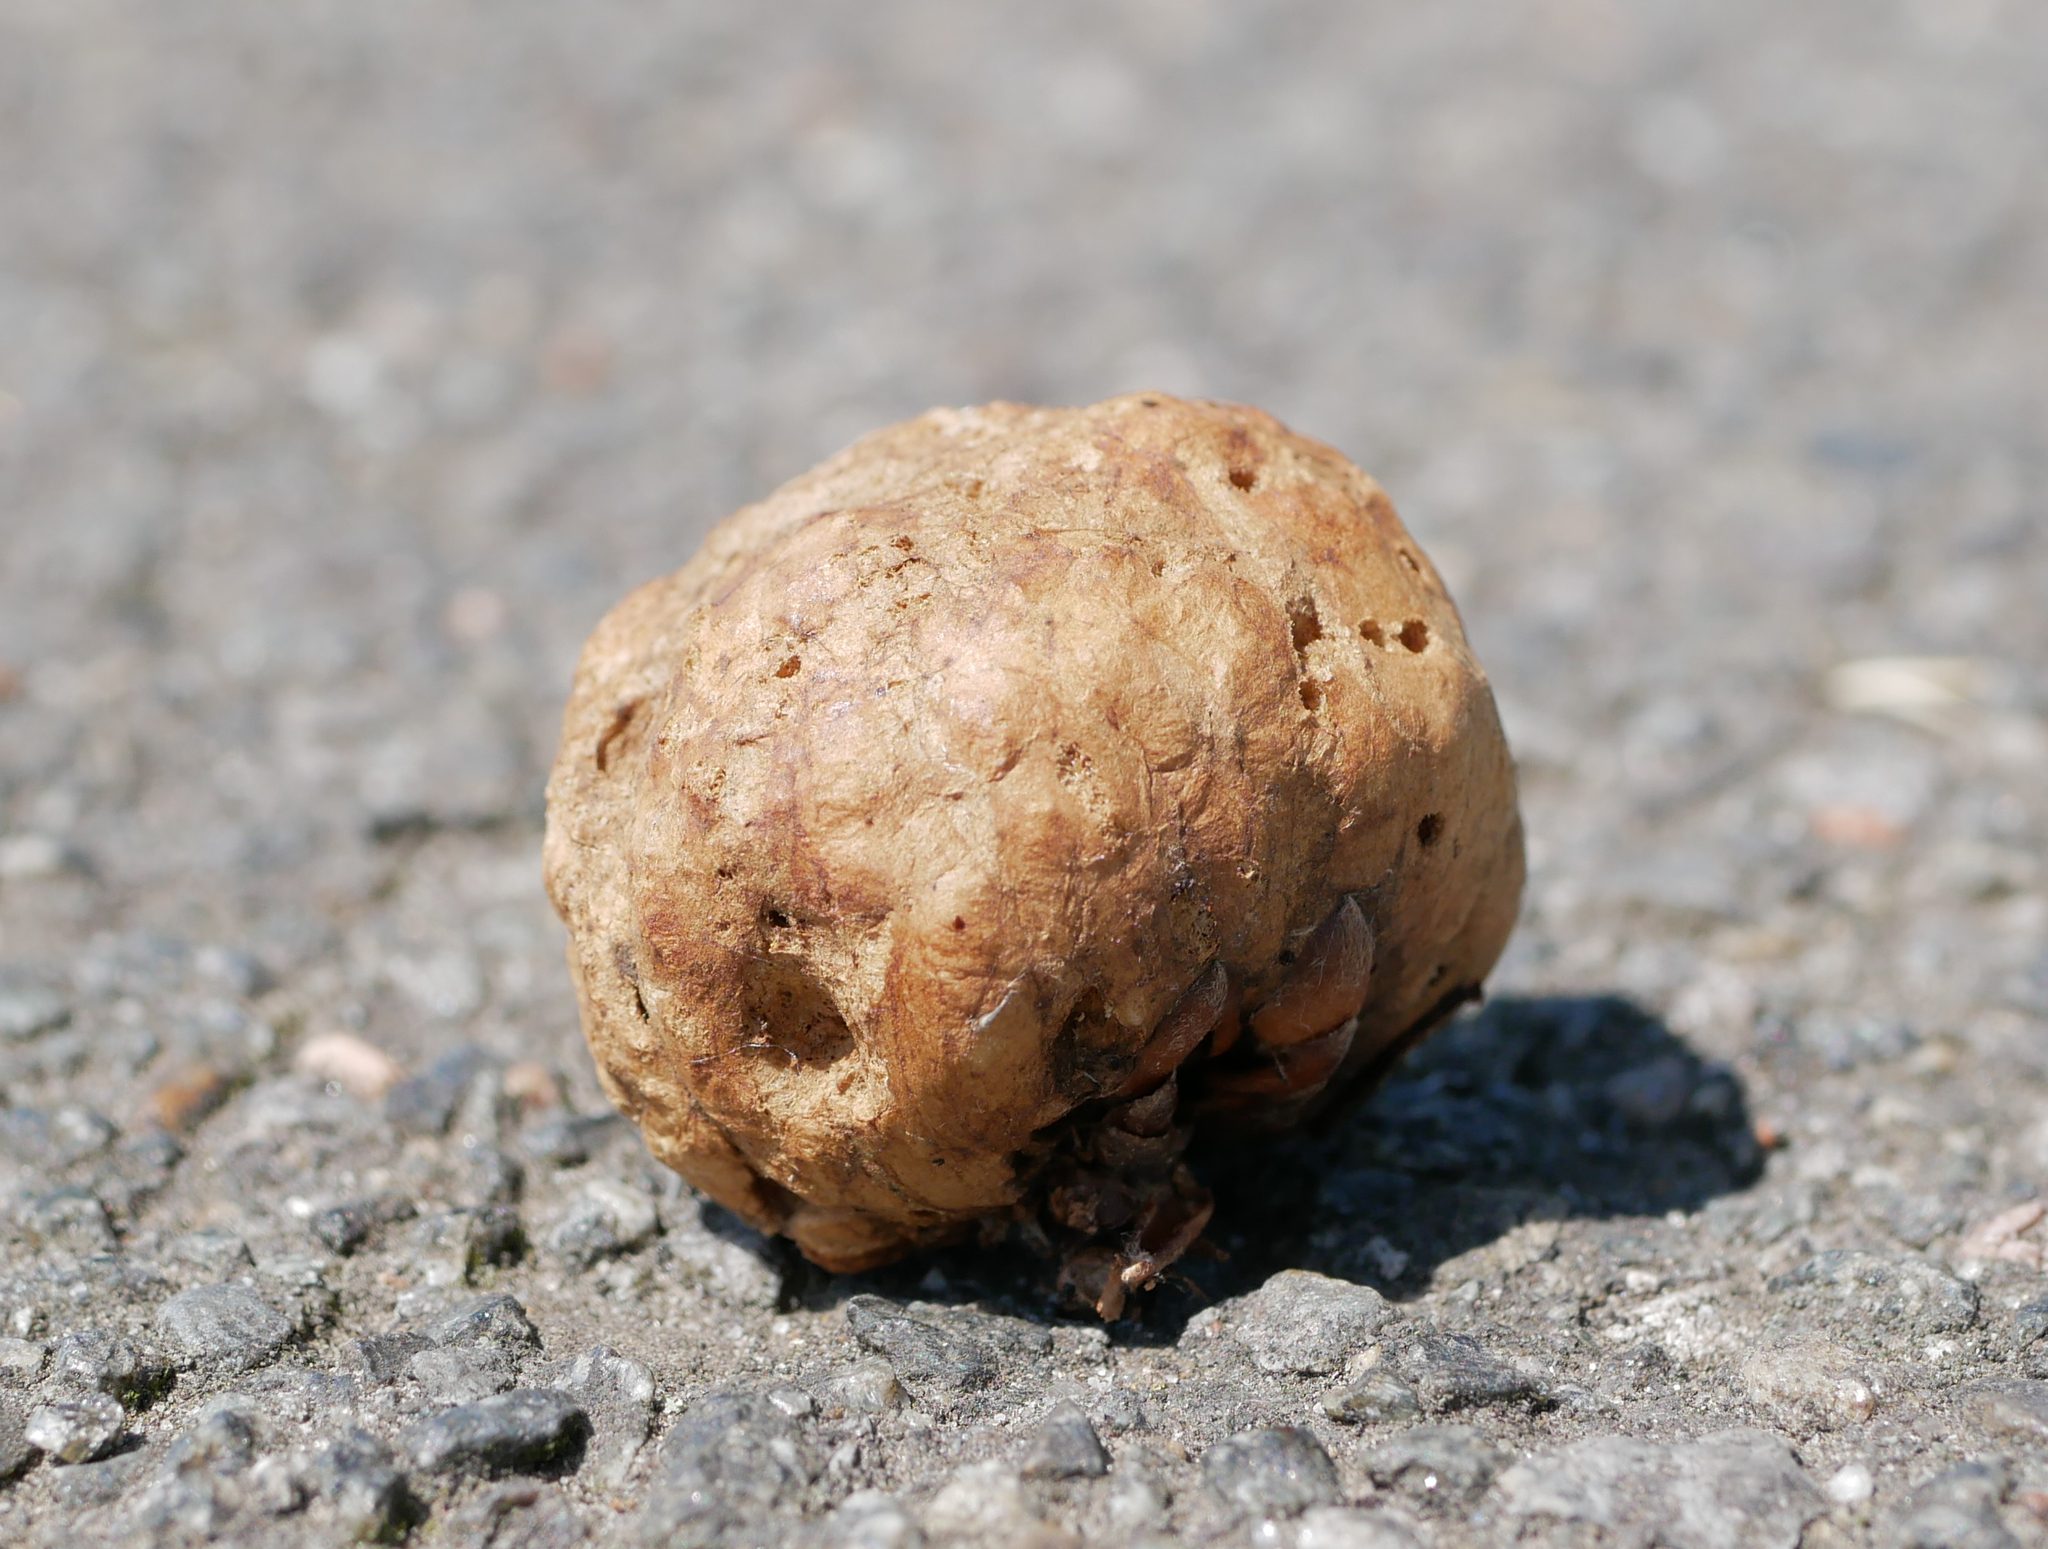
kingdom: Animalia
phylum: Arthropoda
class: Insecta
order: Hymenoptera
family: Cynipidae
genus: Biorhiza
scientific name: Biorhiza pallida
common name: Oak apple
